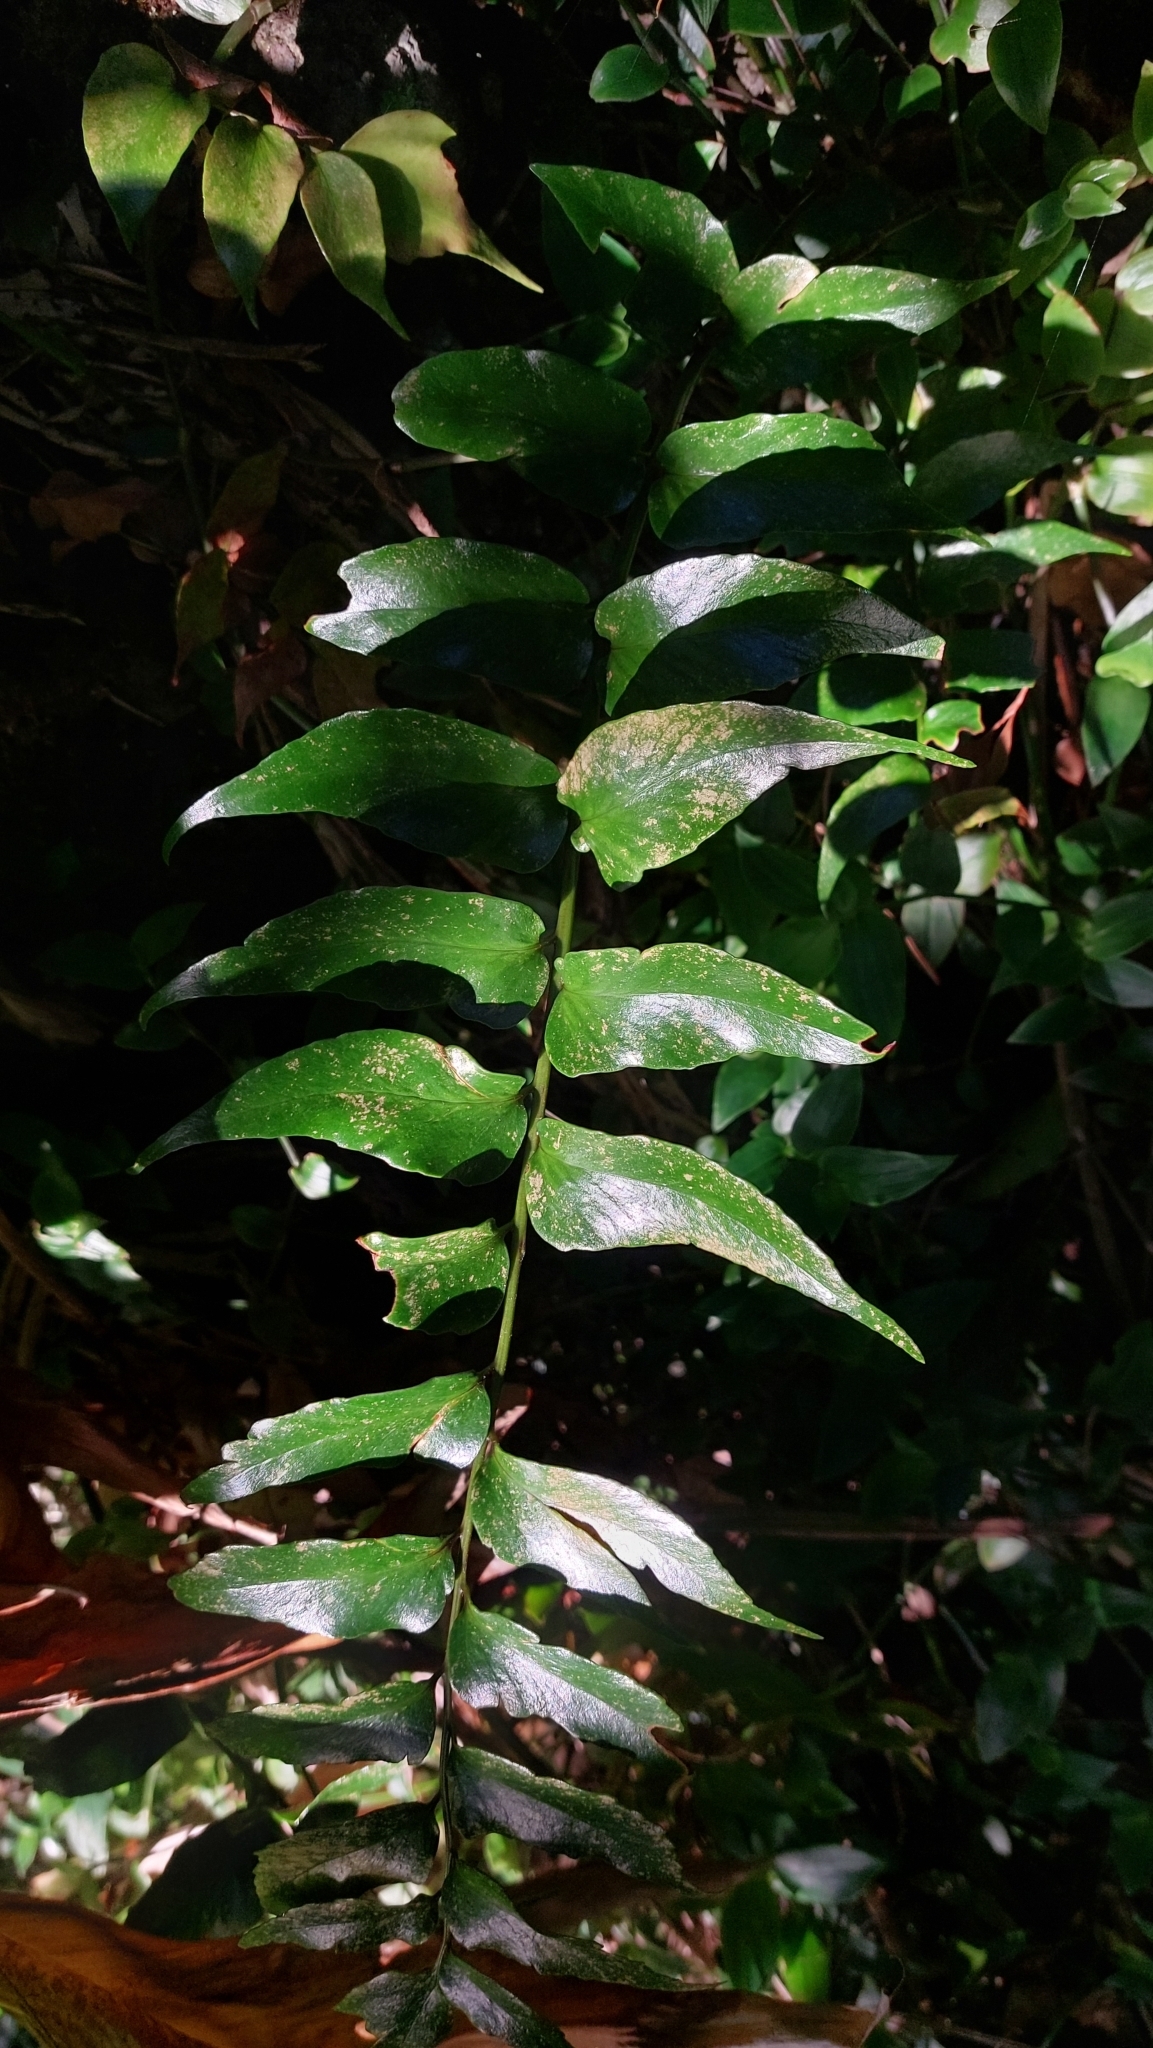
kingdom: Plantae
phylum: Tracheophyta
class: Polypodiopsida
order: Polypodiales
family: Dryopteridaceae
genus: Cyrtomium
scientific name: Cyrtomium falcatum
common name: House holly-fern
